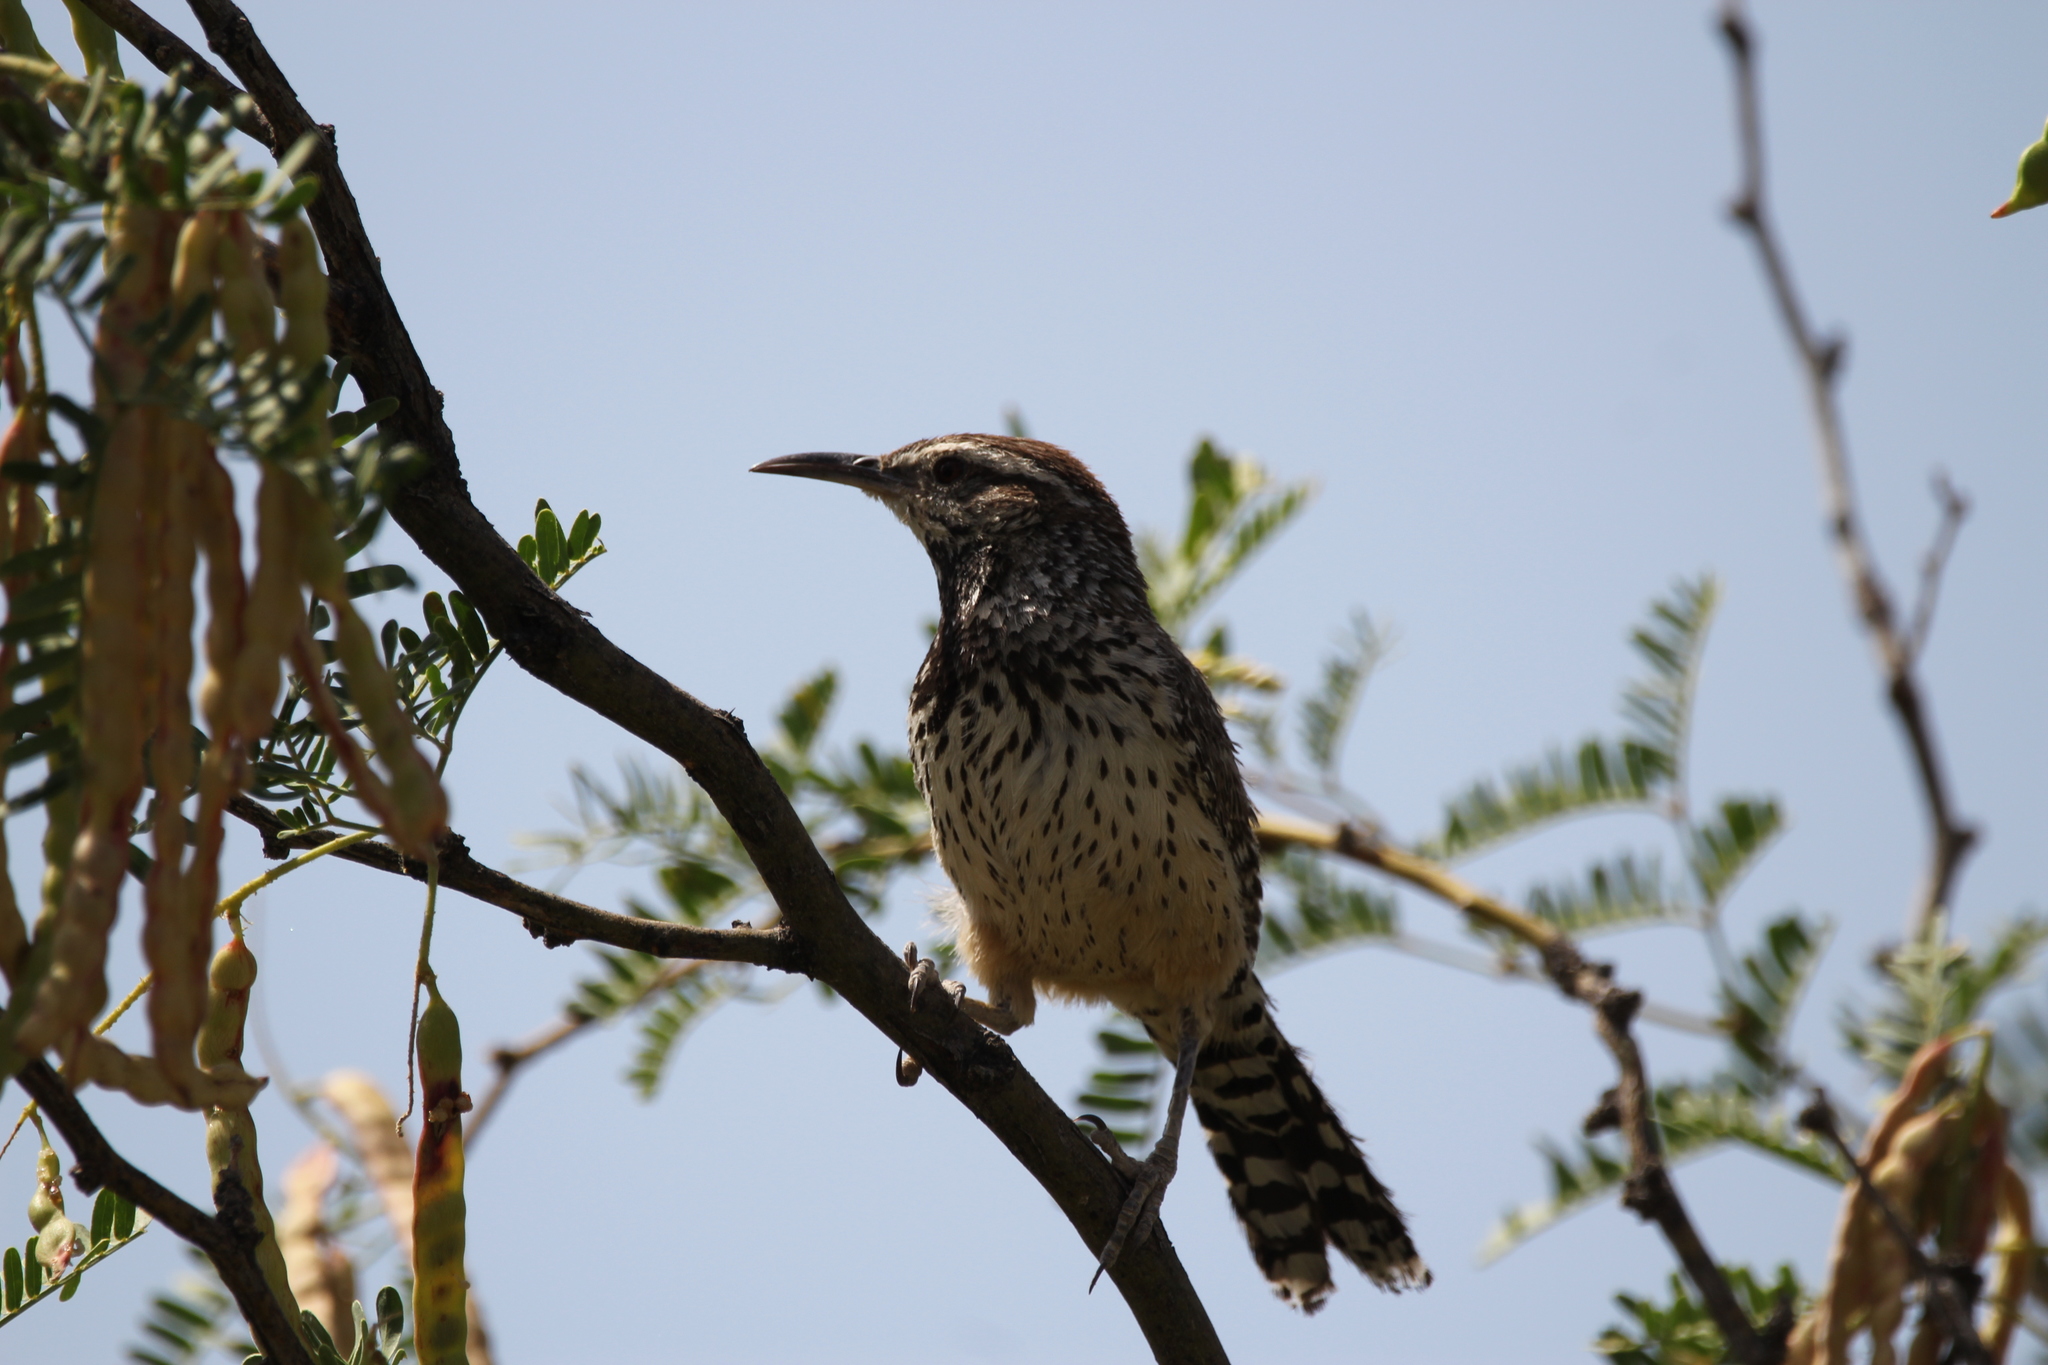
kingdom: Animalia
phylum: Chordata
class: Aves
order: Passeriformes
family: Troglodytidae
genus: Campylorhynchus
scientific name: Campylorhynchus brunneicapillus
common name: Cactus wren
